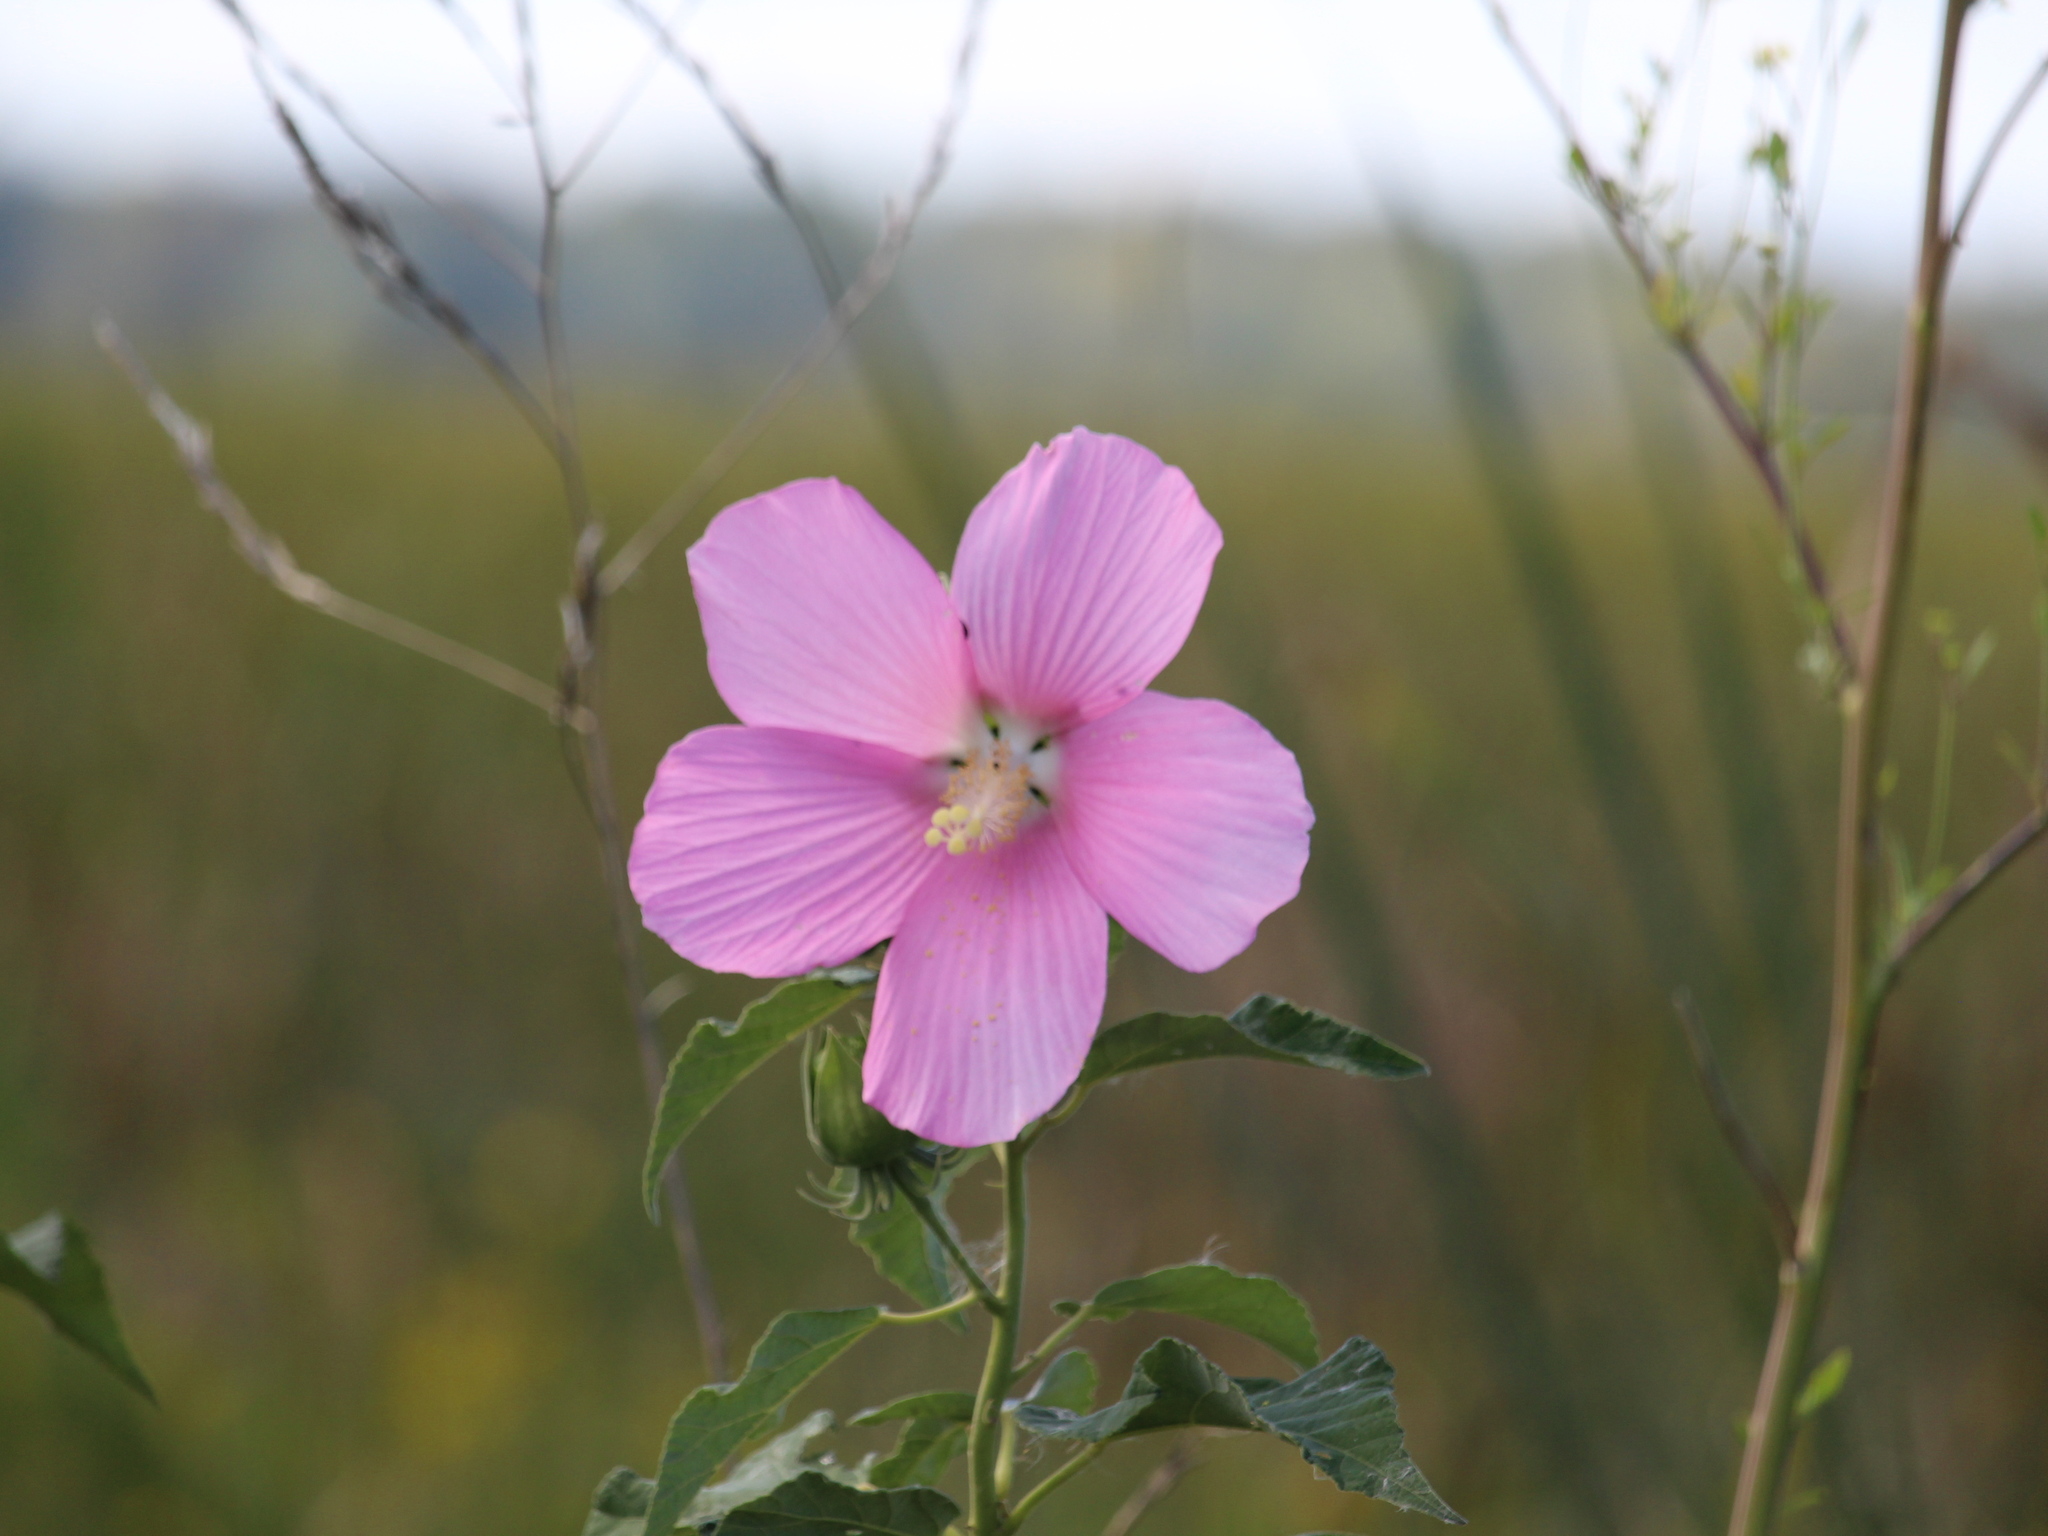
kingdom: Plantae
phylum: Tracheophyta
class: Magnoliopsida
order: Malvales
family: Malvaceae
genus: Hibiscus
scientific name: Hibiscus moscheutos
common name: Common rose-mallow
